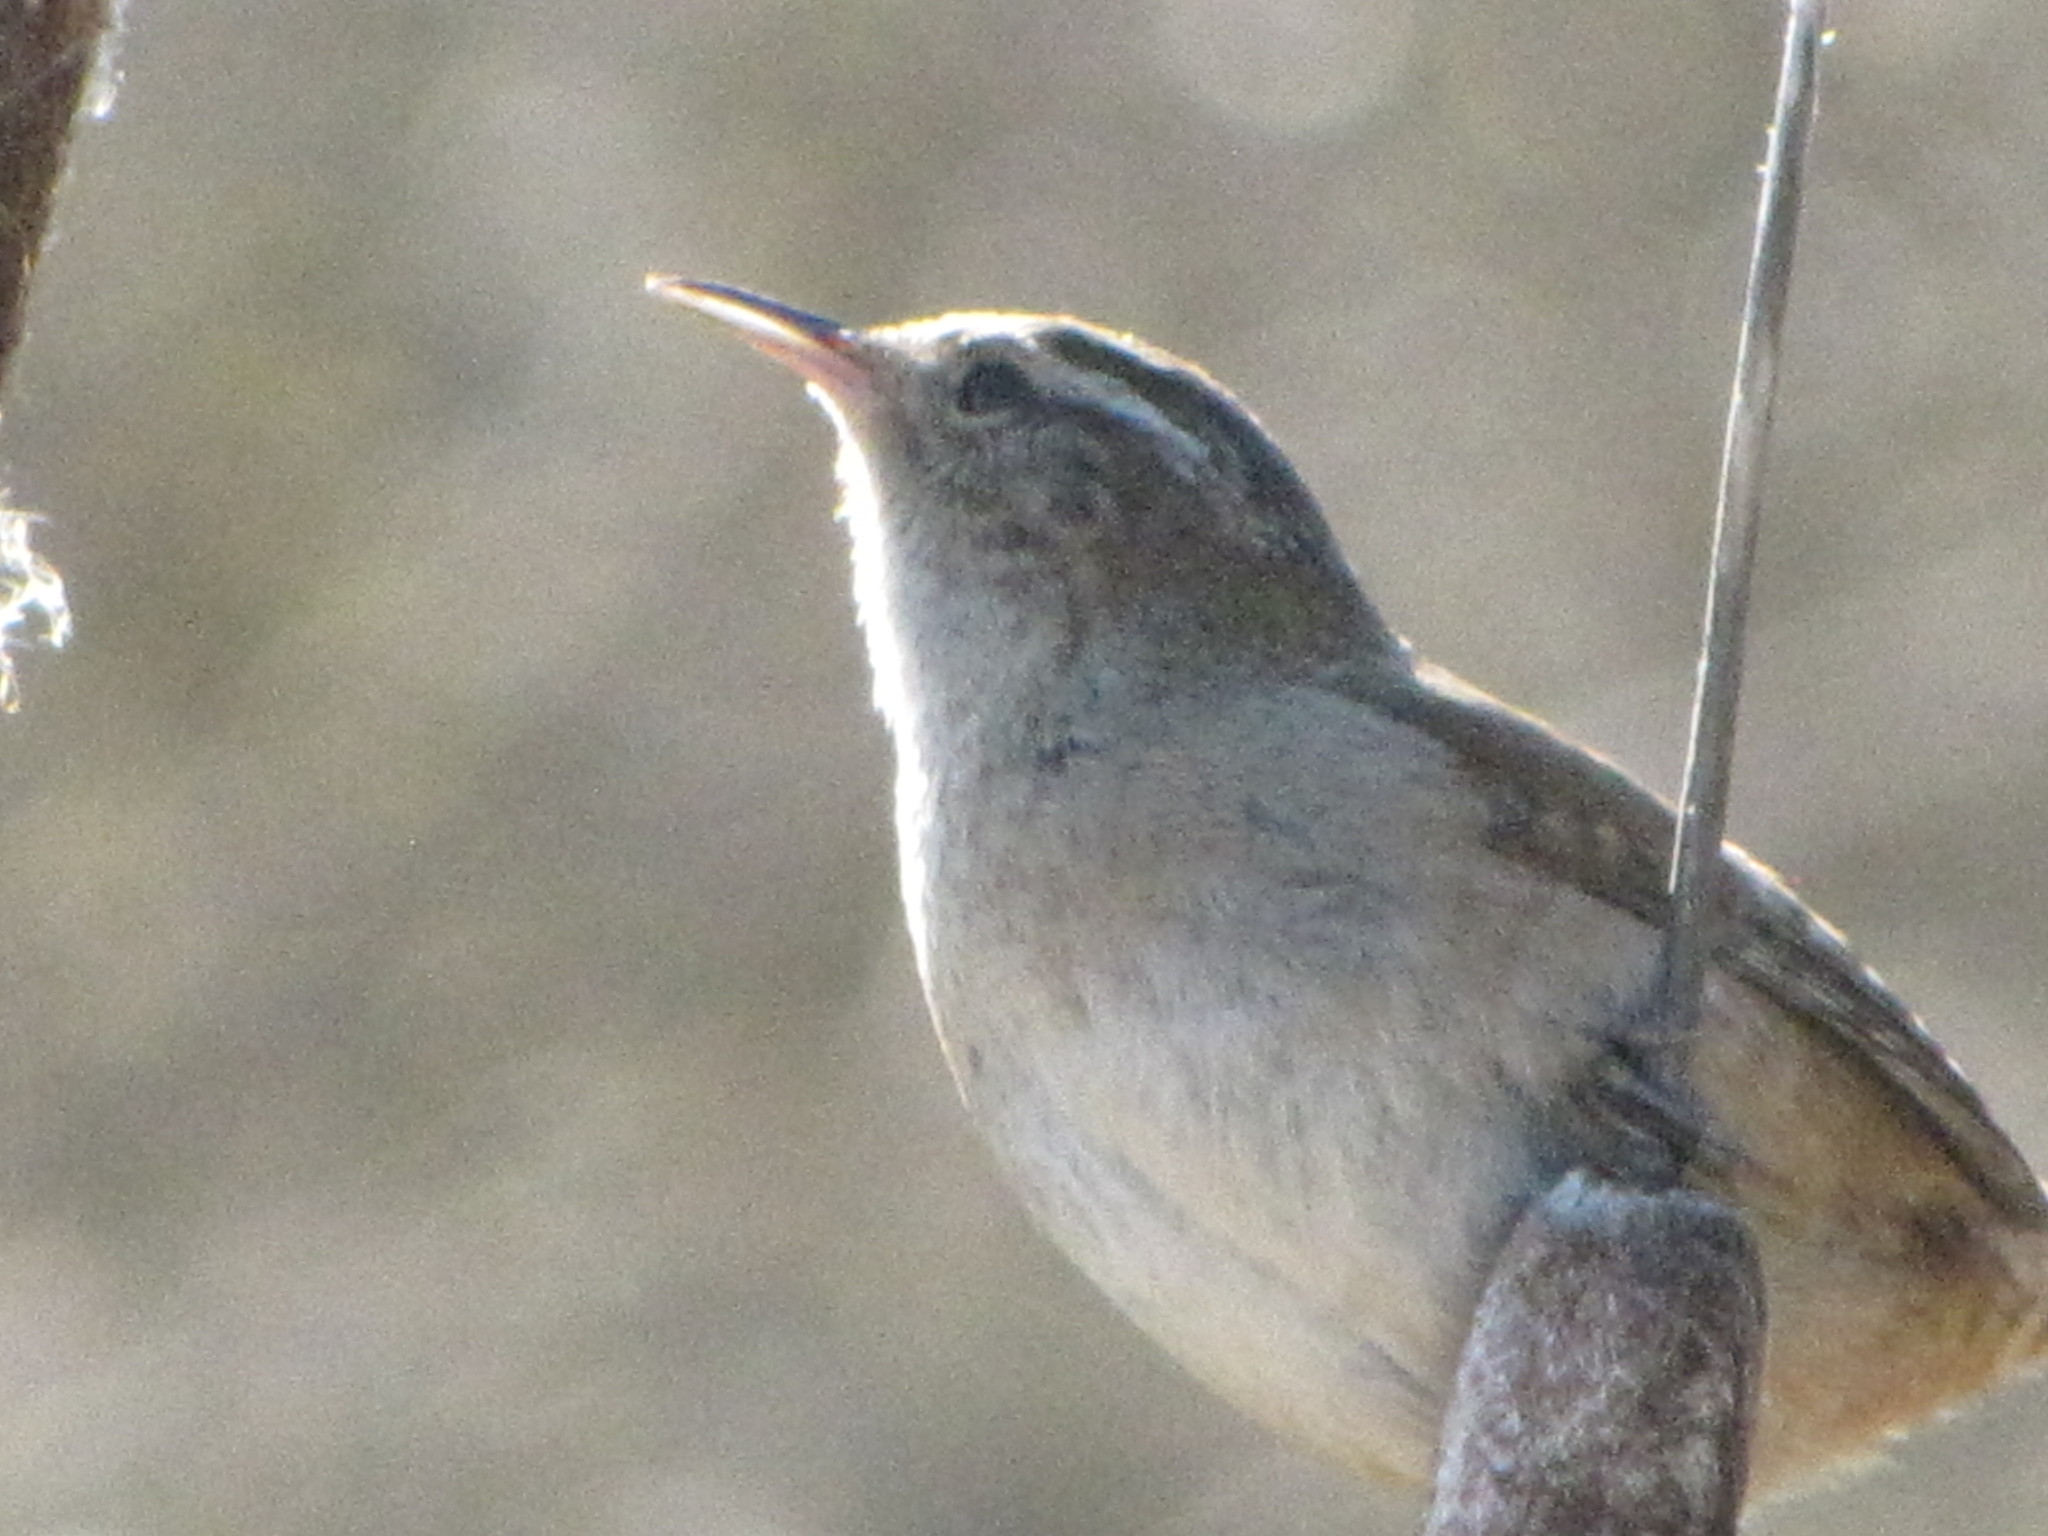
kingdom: Animalia
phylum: Chordata
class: Aves
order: Passeriformes
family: Troglodytidae
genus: Cistothorus
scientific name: Cistothorus palustris
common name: Marsh wren
